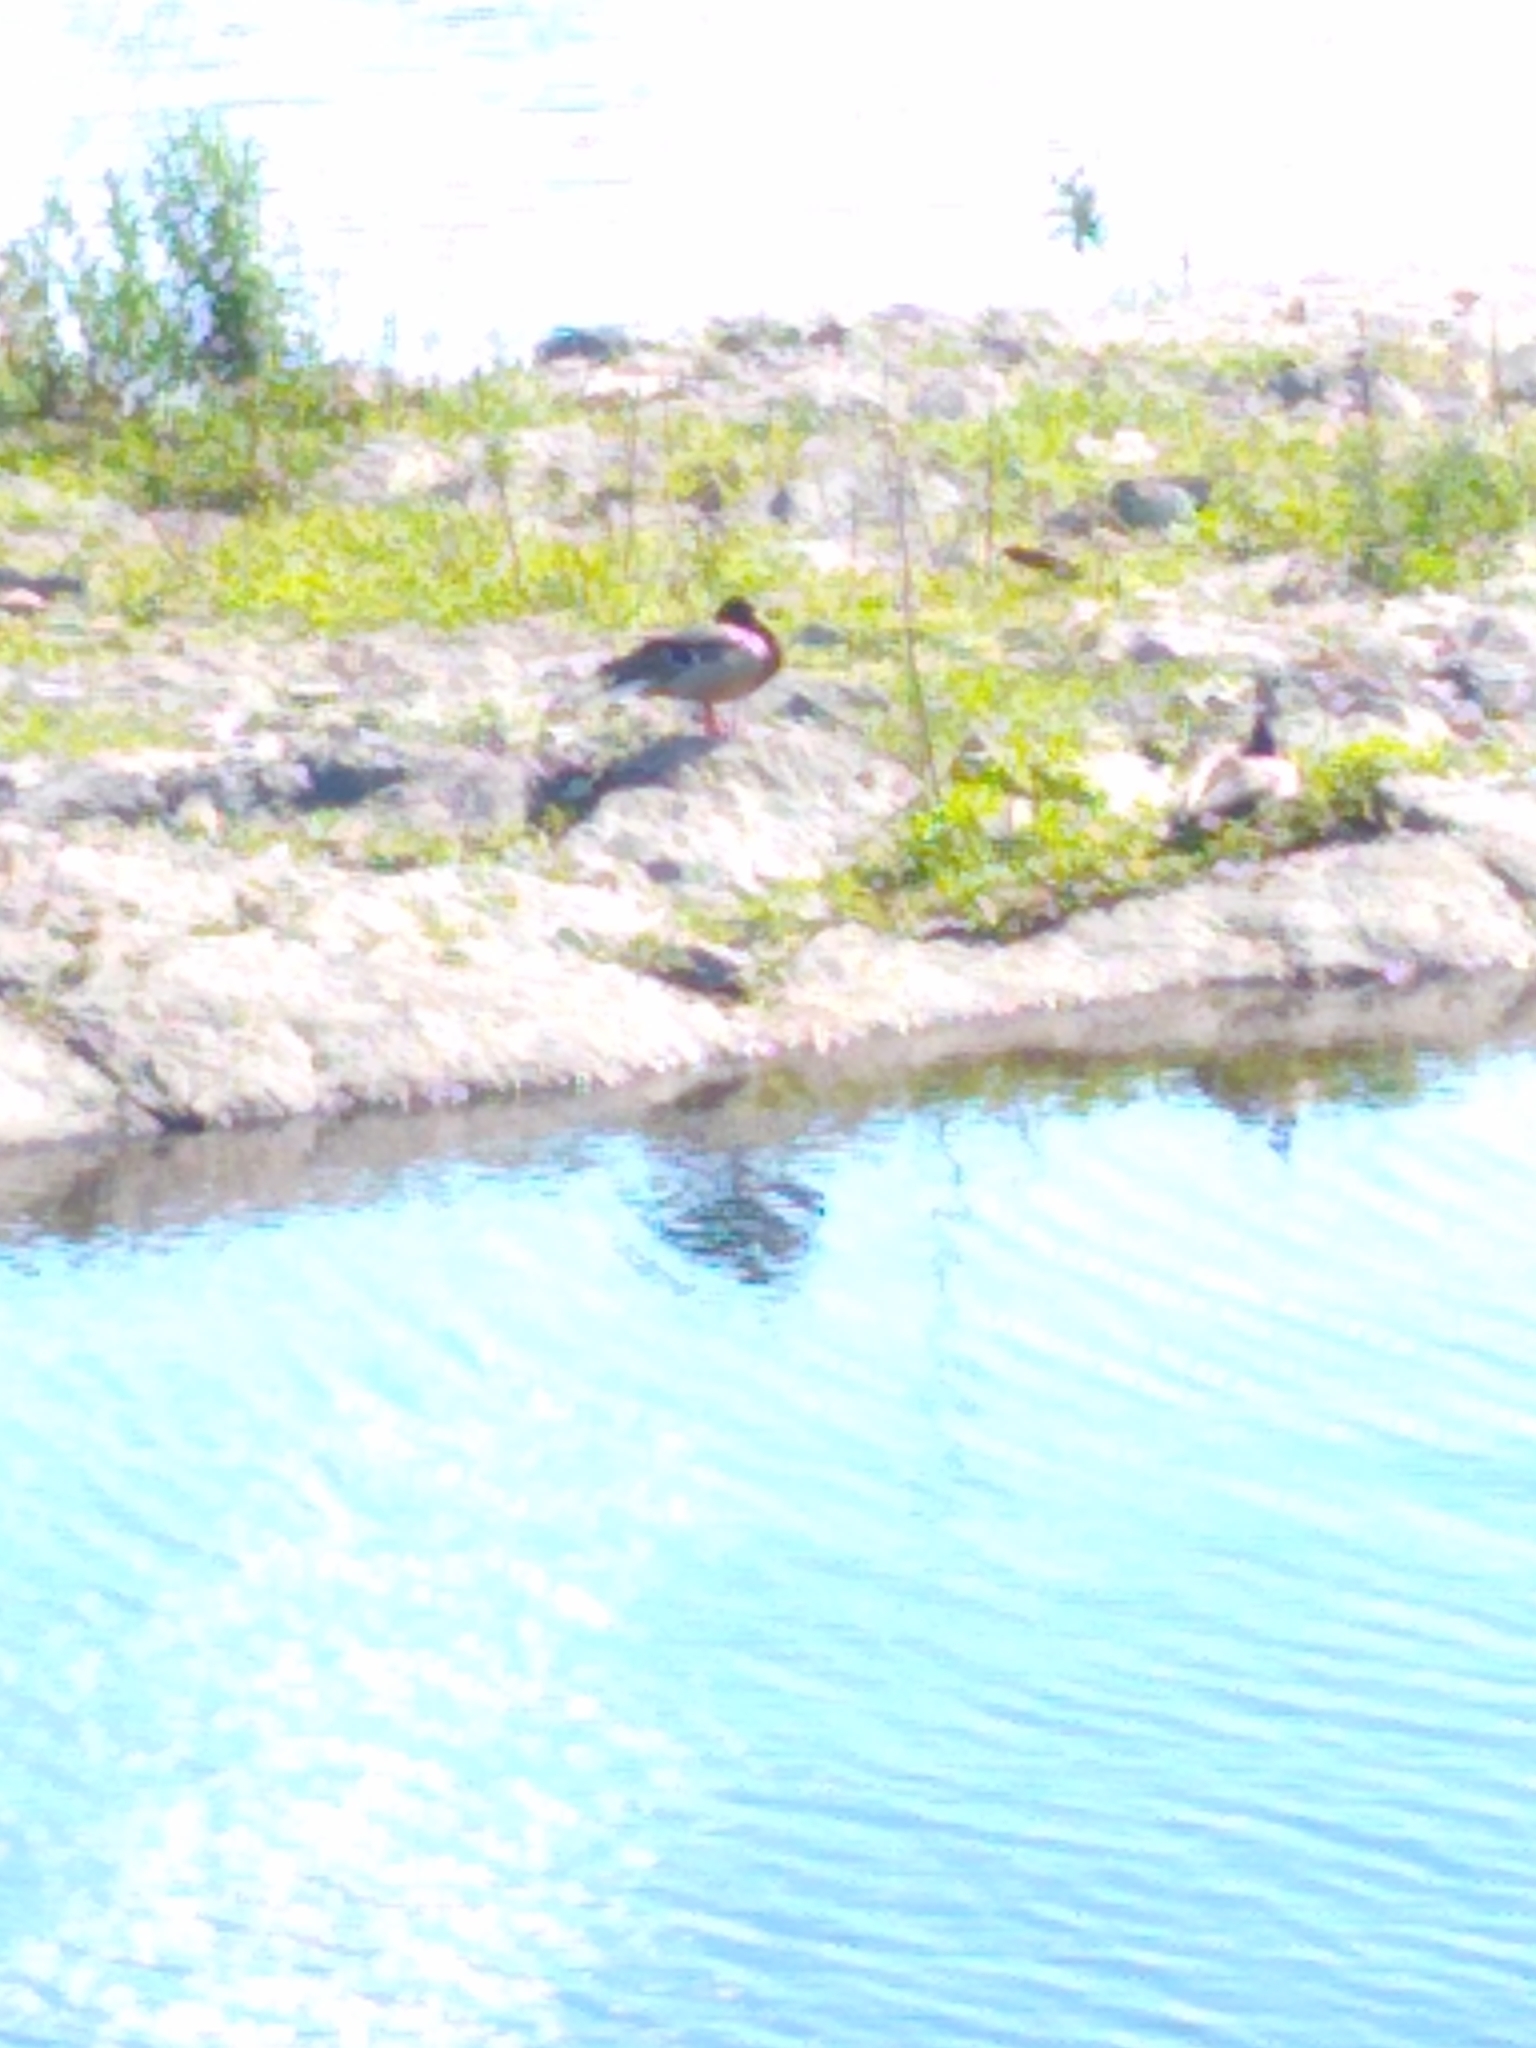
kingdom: Animalia
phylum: Chordata
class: Aves
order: Anseriformes
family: Anatidae
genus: Anas
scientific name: Anas platyrhynchos
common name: Mallard
